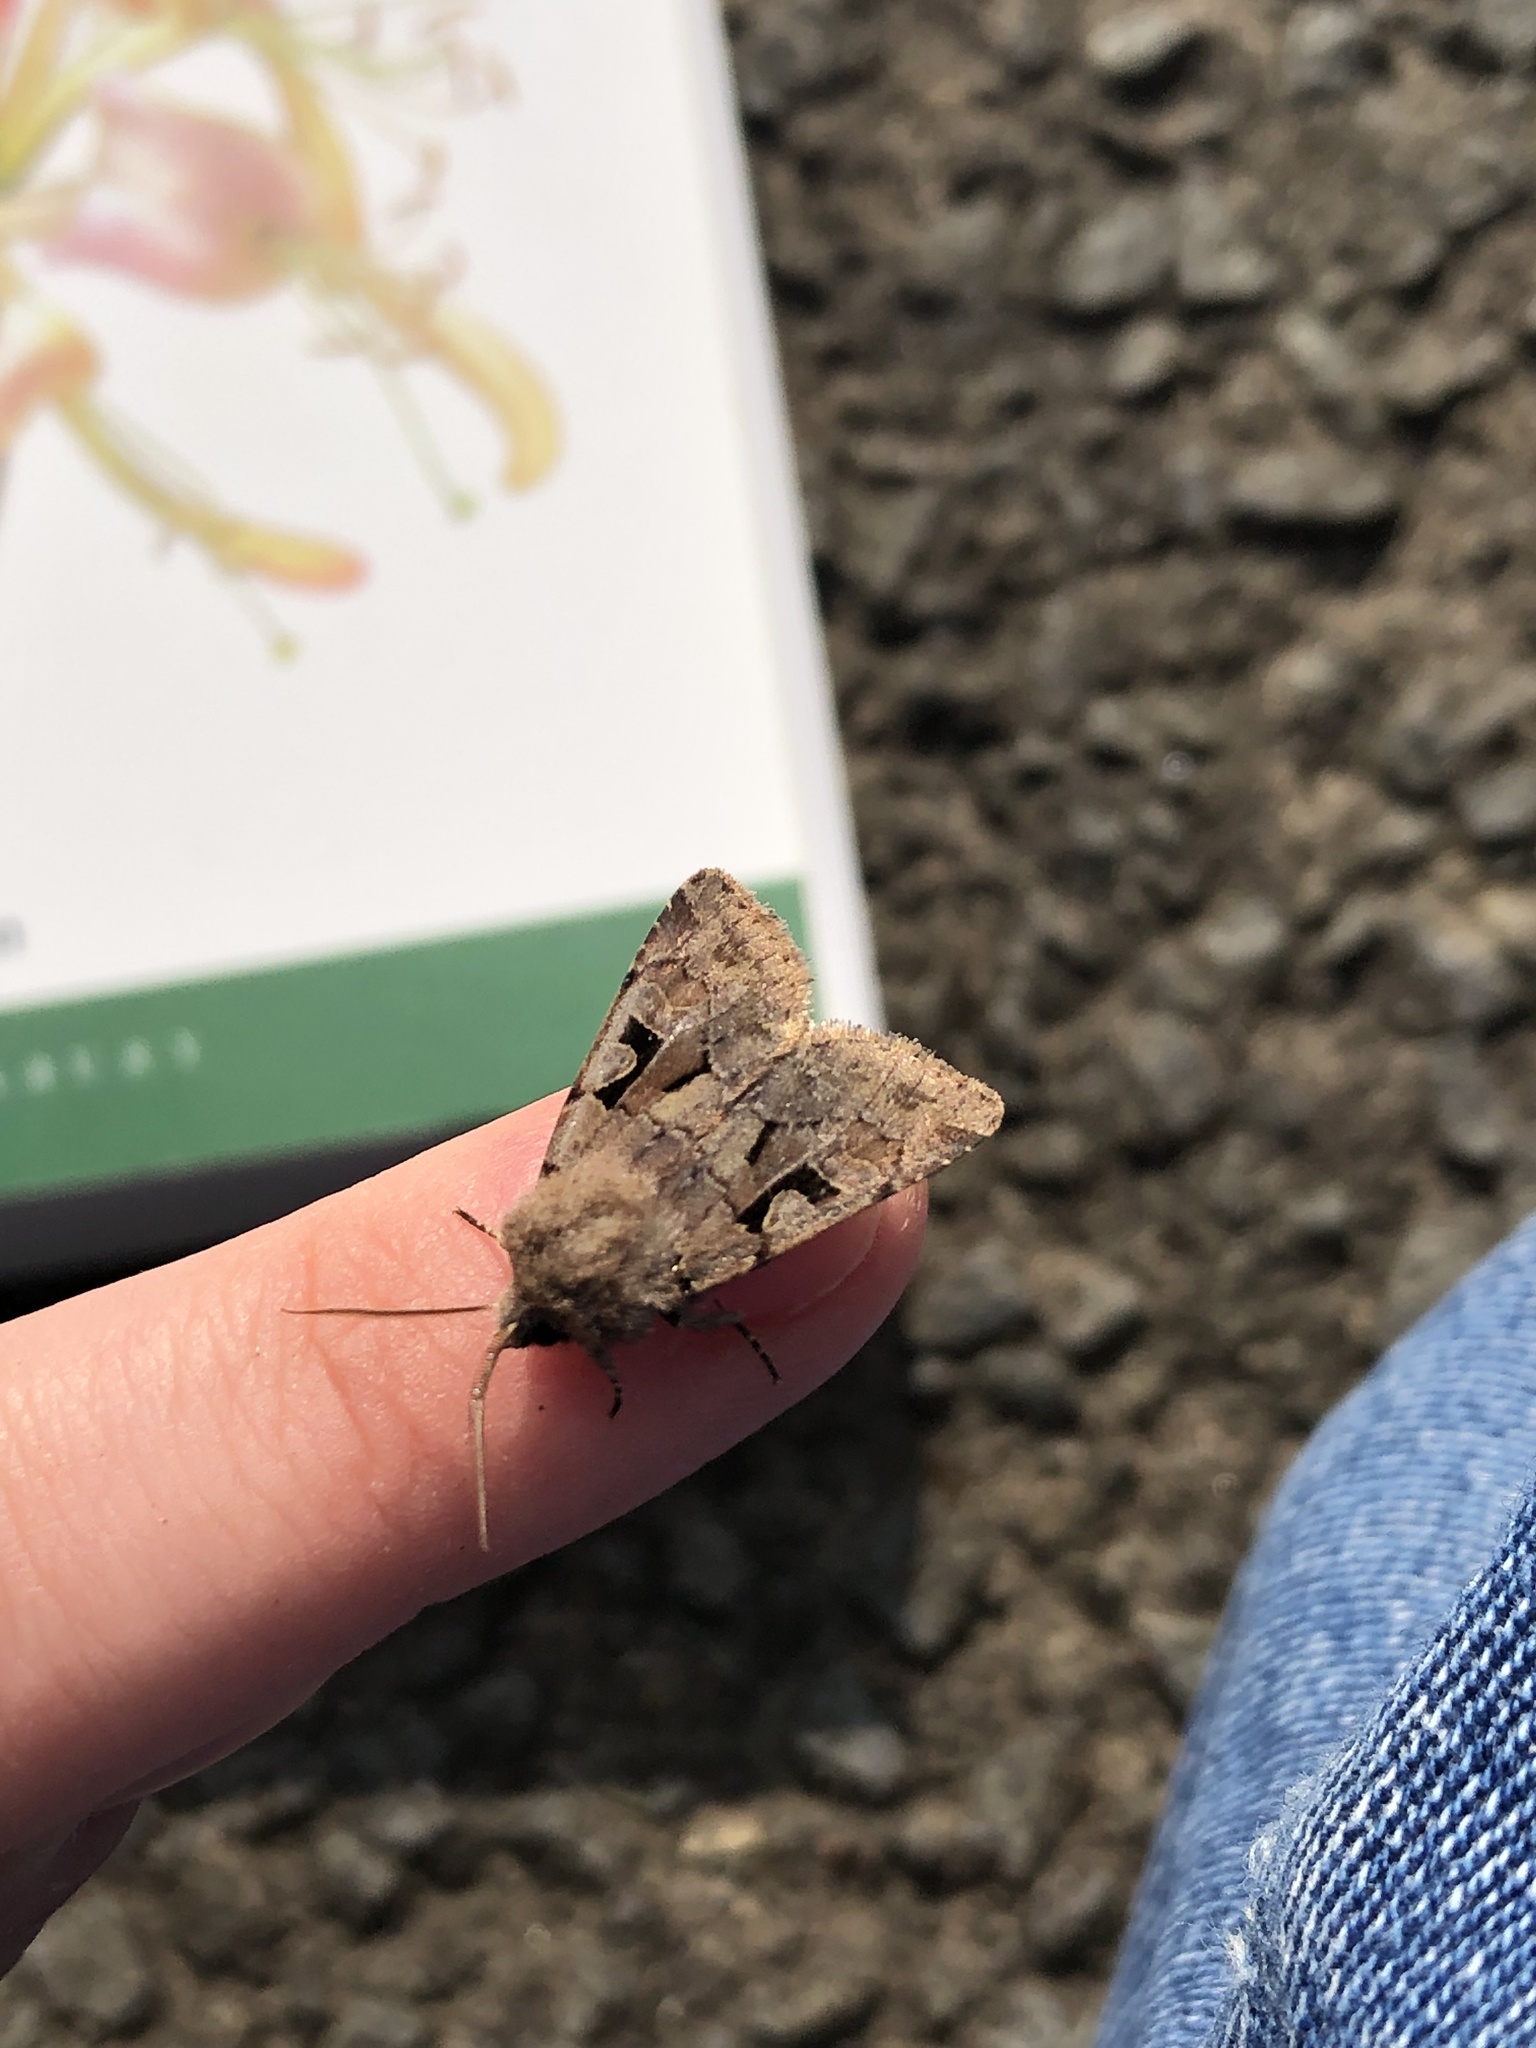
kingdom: Animalia
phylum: Arthropoda
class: Insecta
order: Lepidoptera
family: Noctuidae
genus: Orthosia
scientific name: Orthosia gothica
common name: Hebrew character
